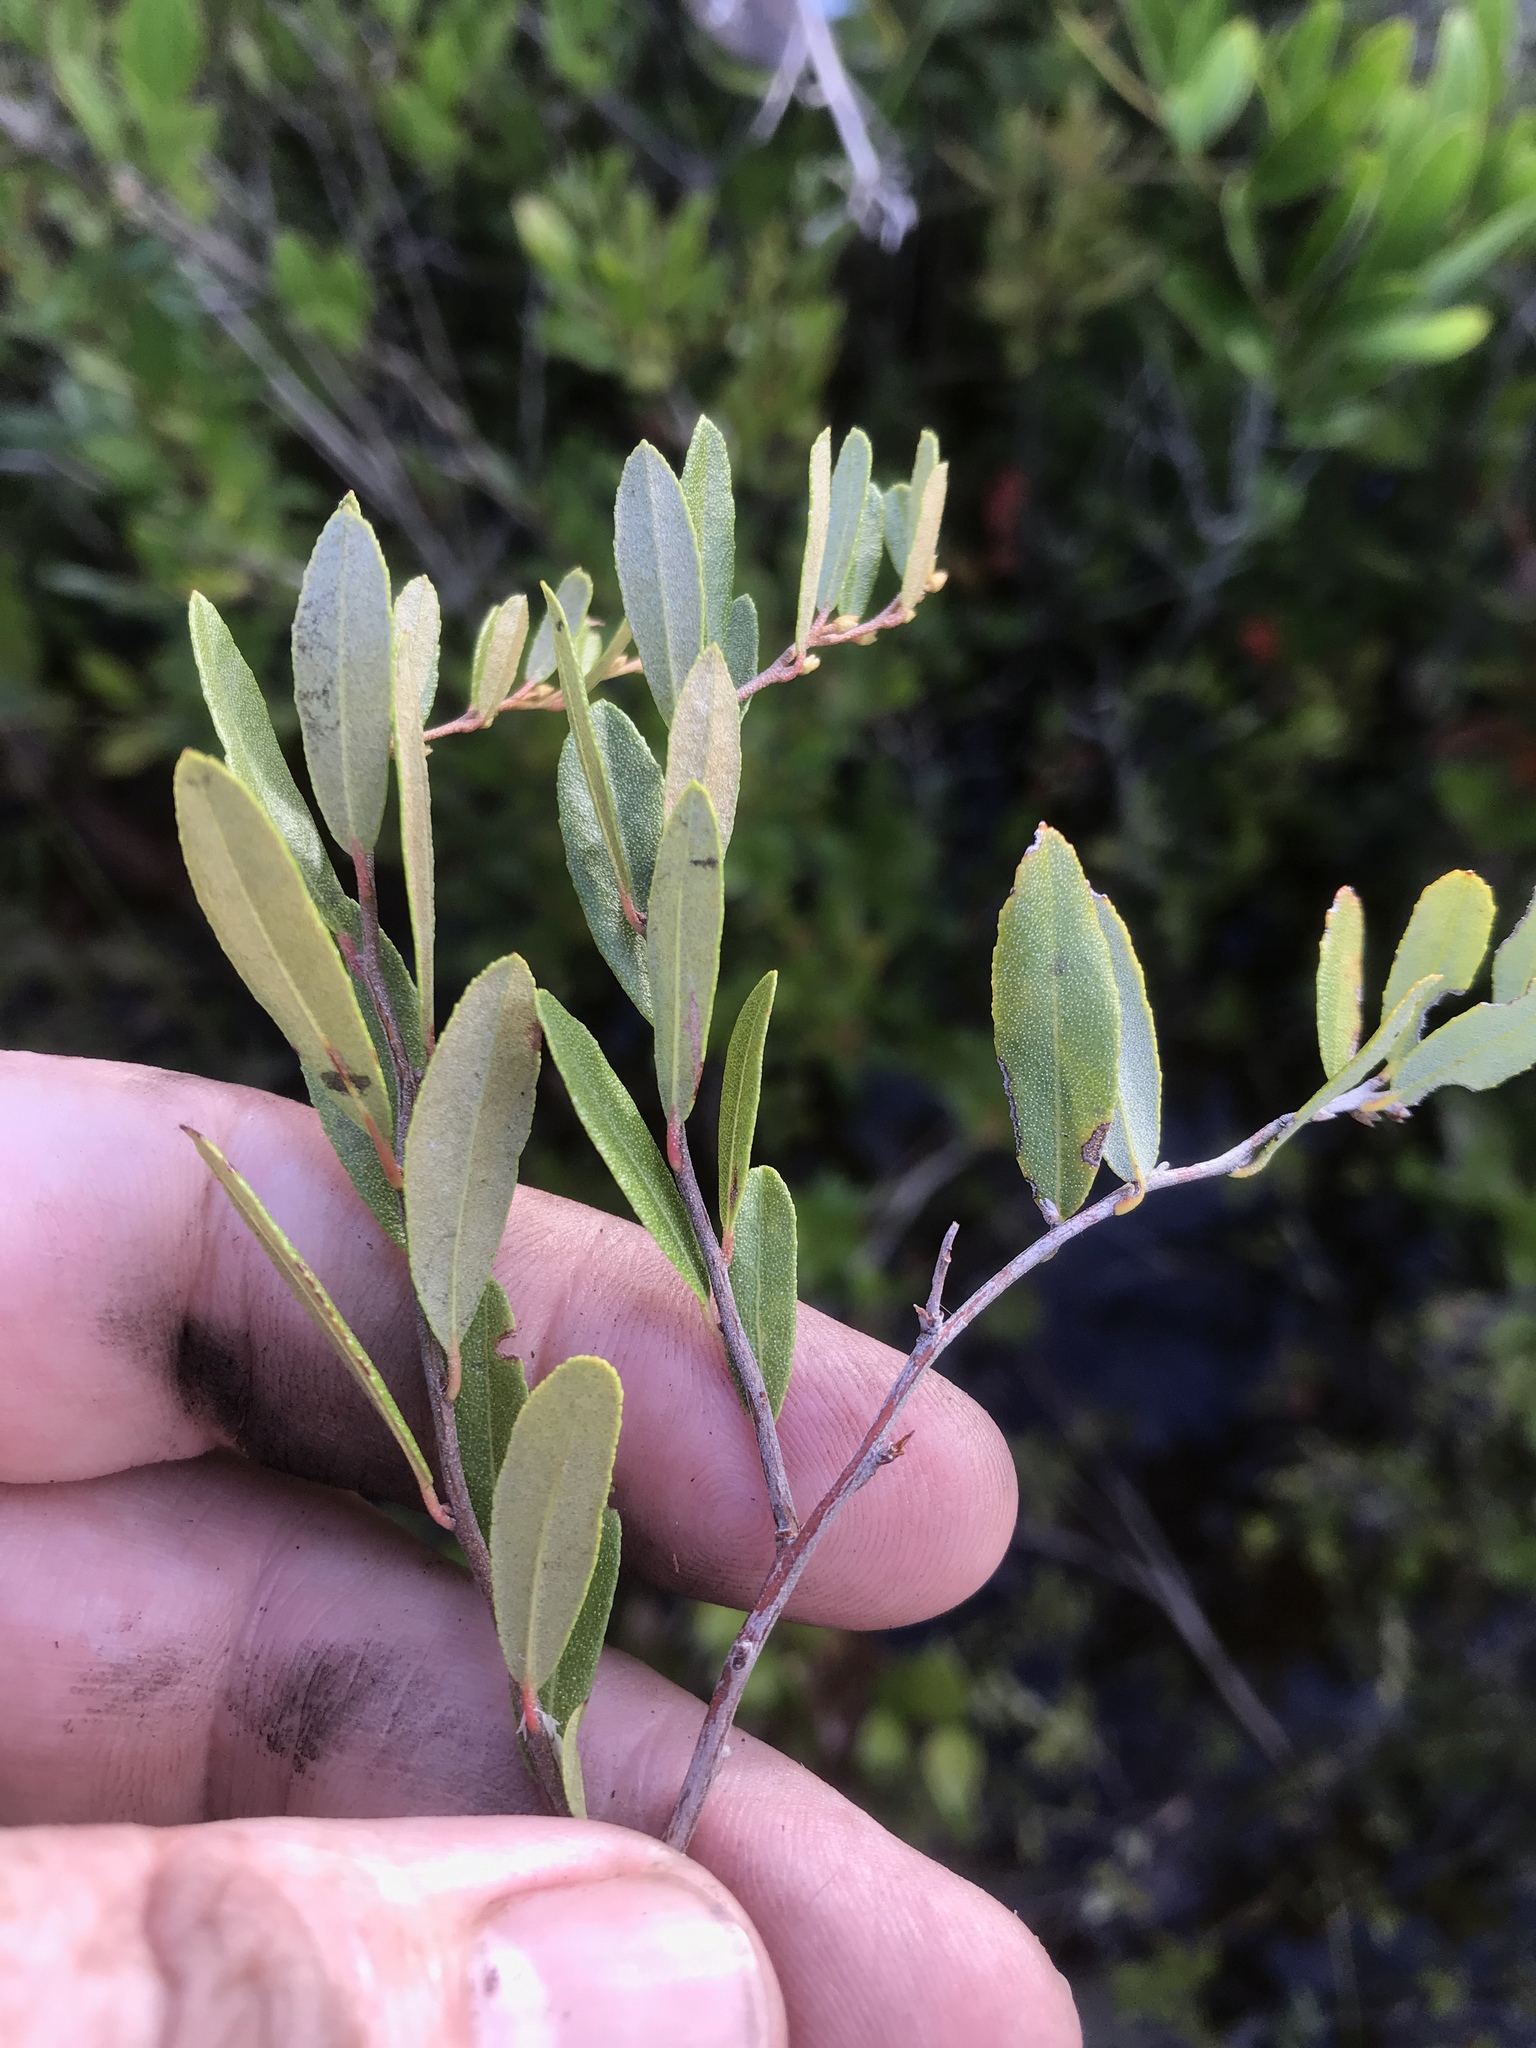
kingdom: Plantae
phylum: Tracheophyta
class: Magnoliopsida
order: Ericales
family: Ericaceae
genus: Chamaedaphne
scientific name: Chamaedaphne calyculata
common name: Leatherleaf
